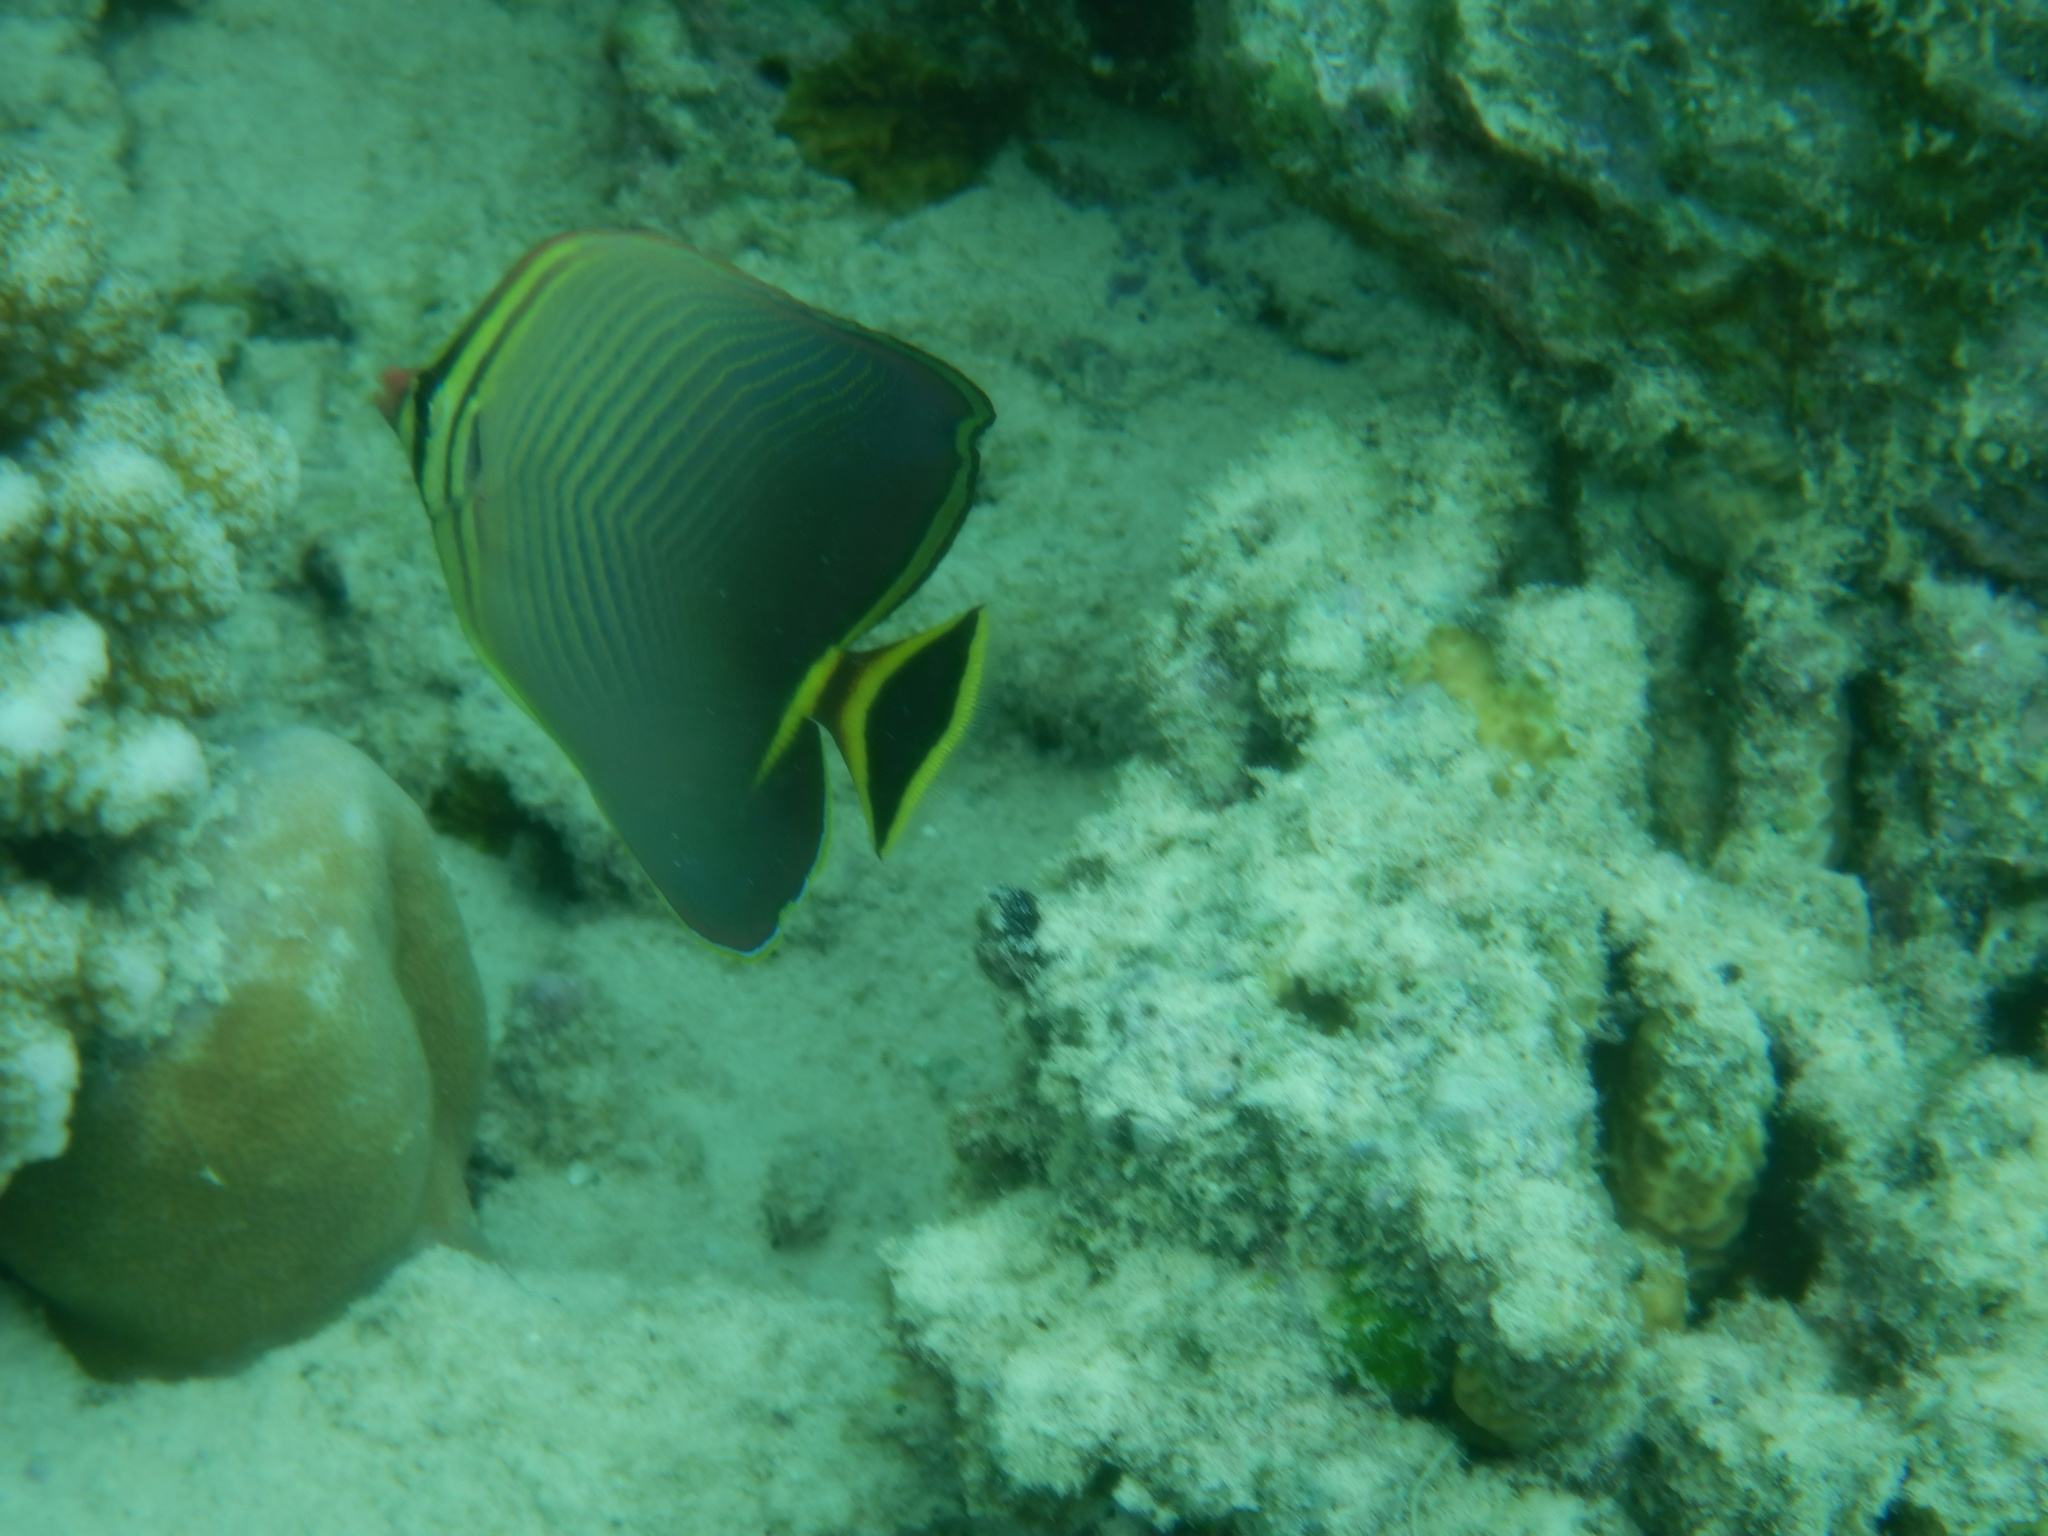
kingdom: Animalia
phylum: Chordata
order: Perciformes
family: Chaetodontidae
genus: Chaetodon
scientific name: Chaetodon triangulum
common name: Triangular butterflyfish
